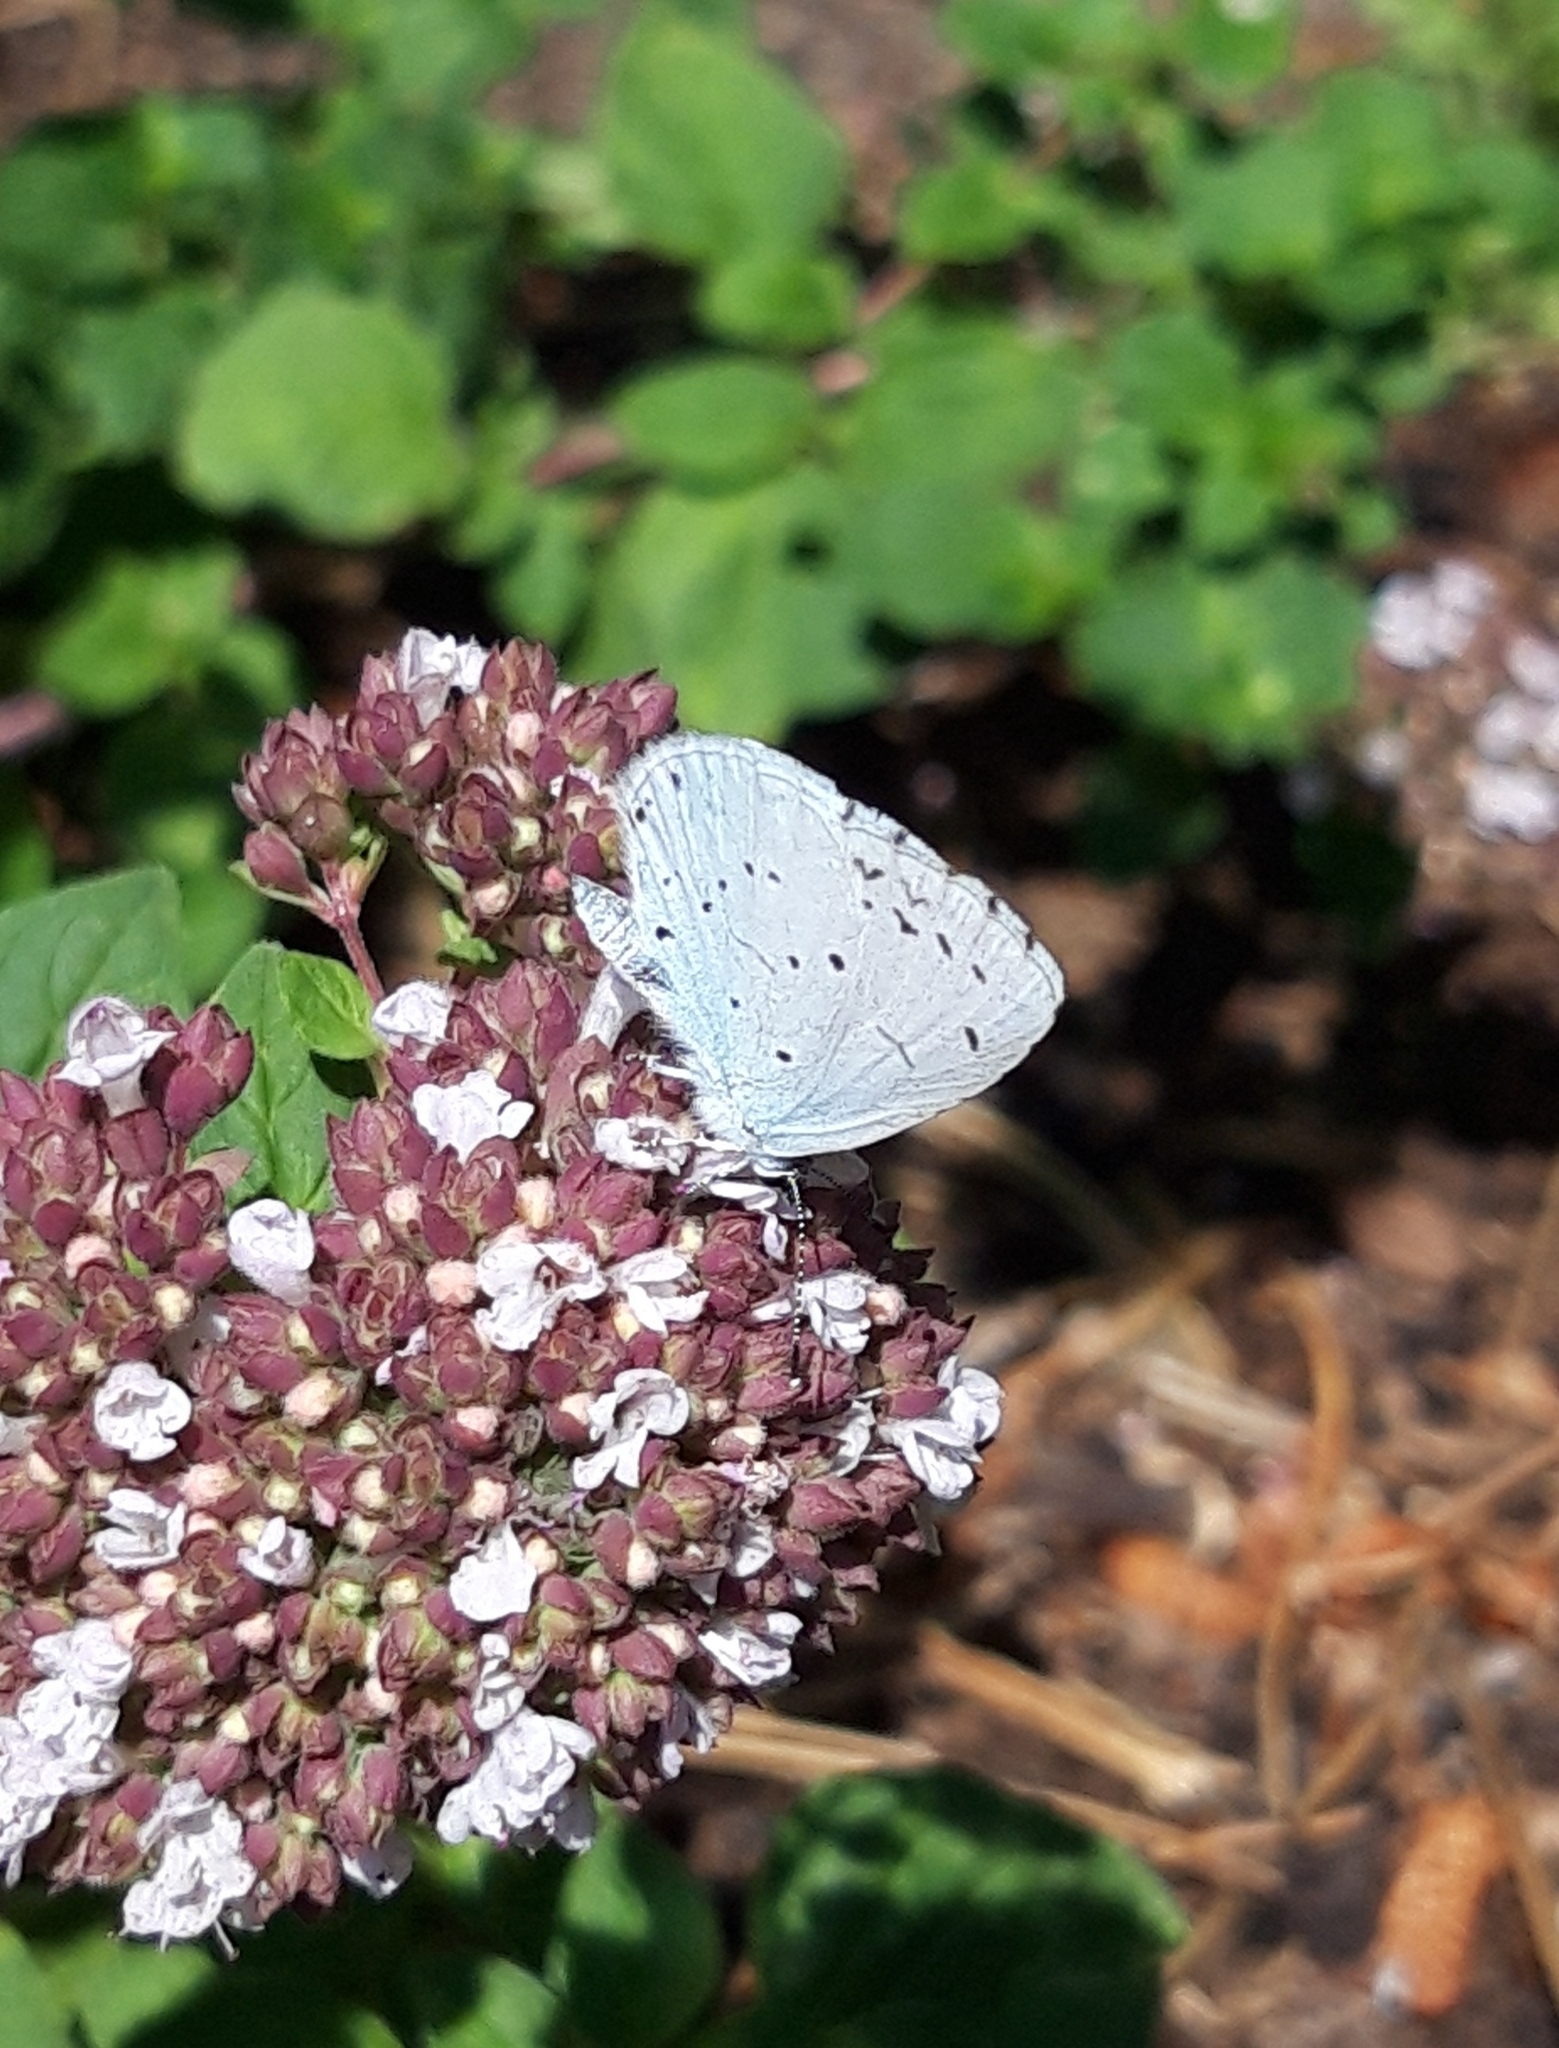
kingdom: Animalia
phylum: Arthropoda
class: Insecta
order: Lepidoptera
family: Lycaenidae
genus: Celastrina
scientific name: Celastrina argiolus
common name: Holly blue
